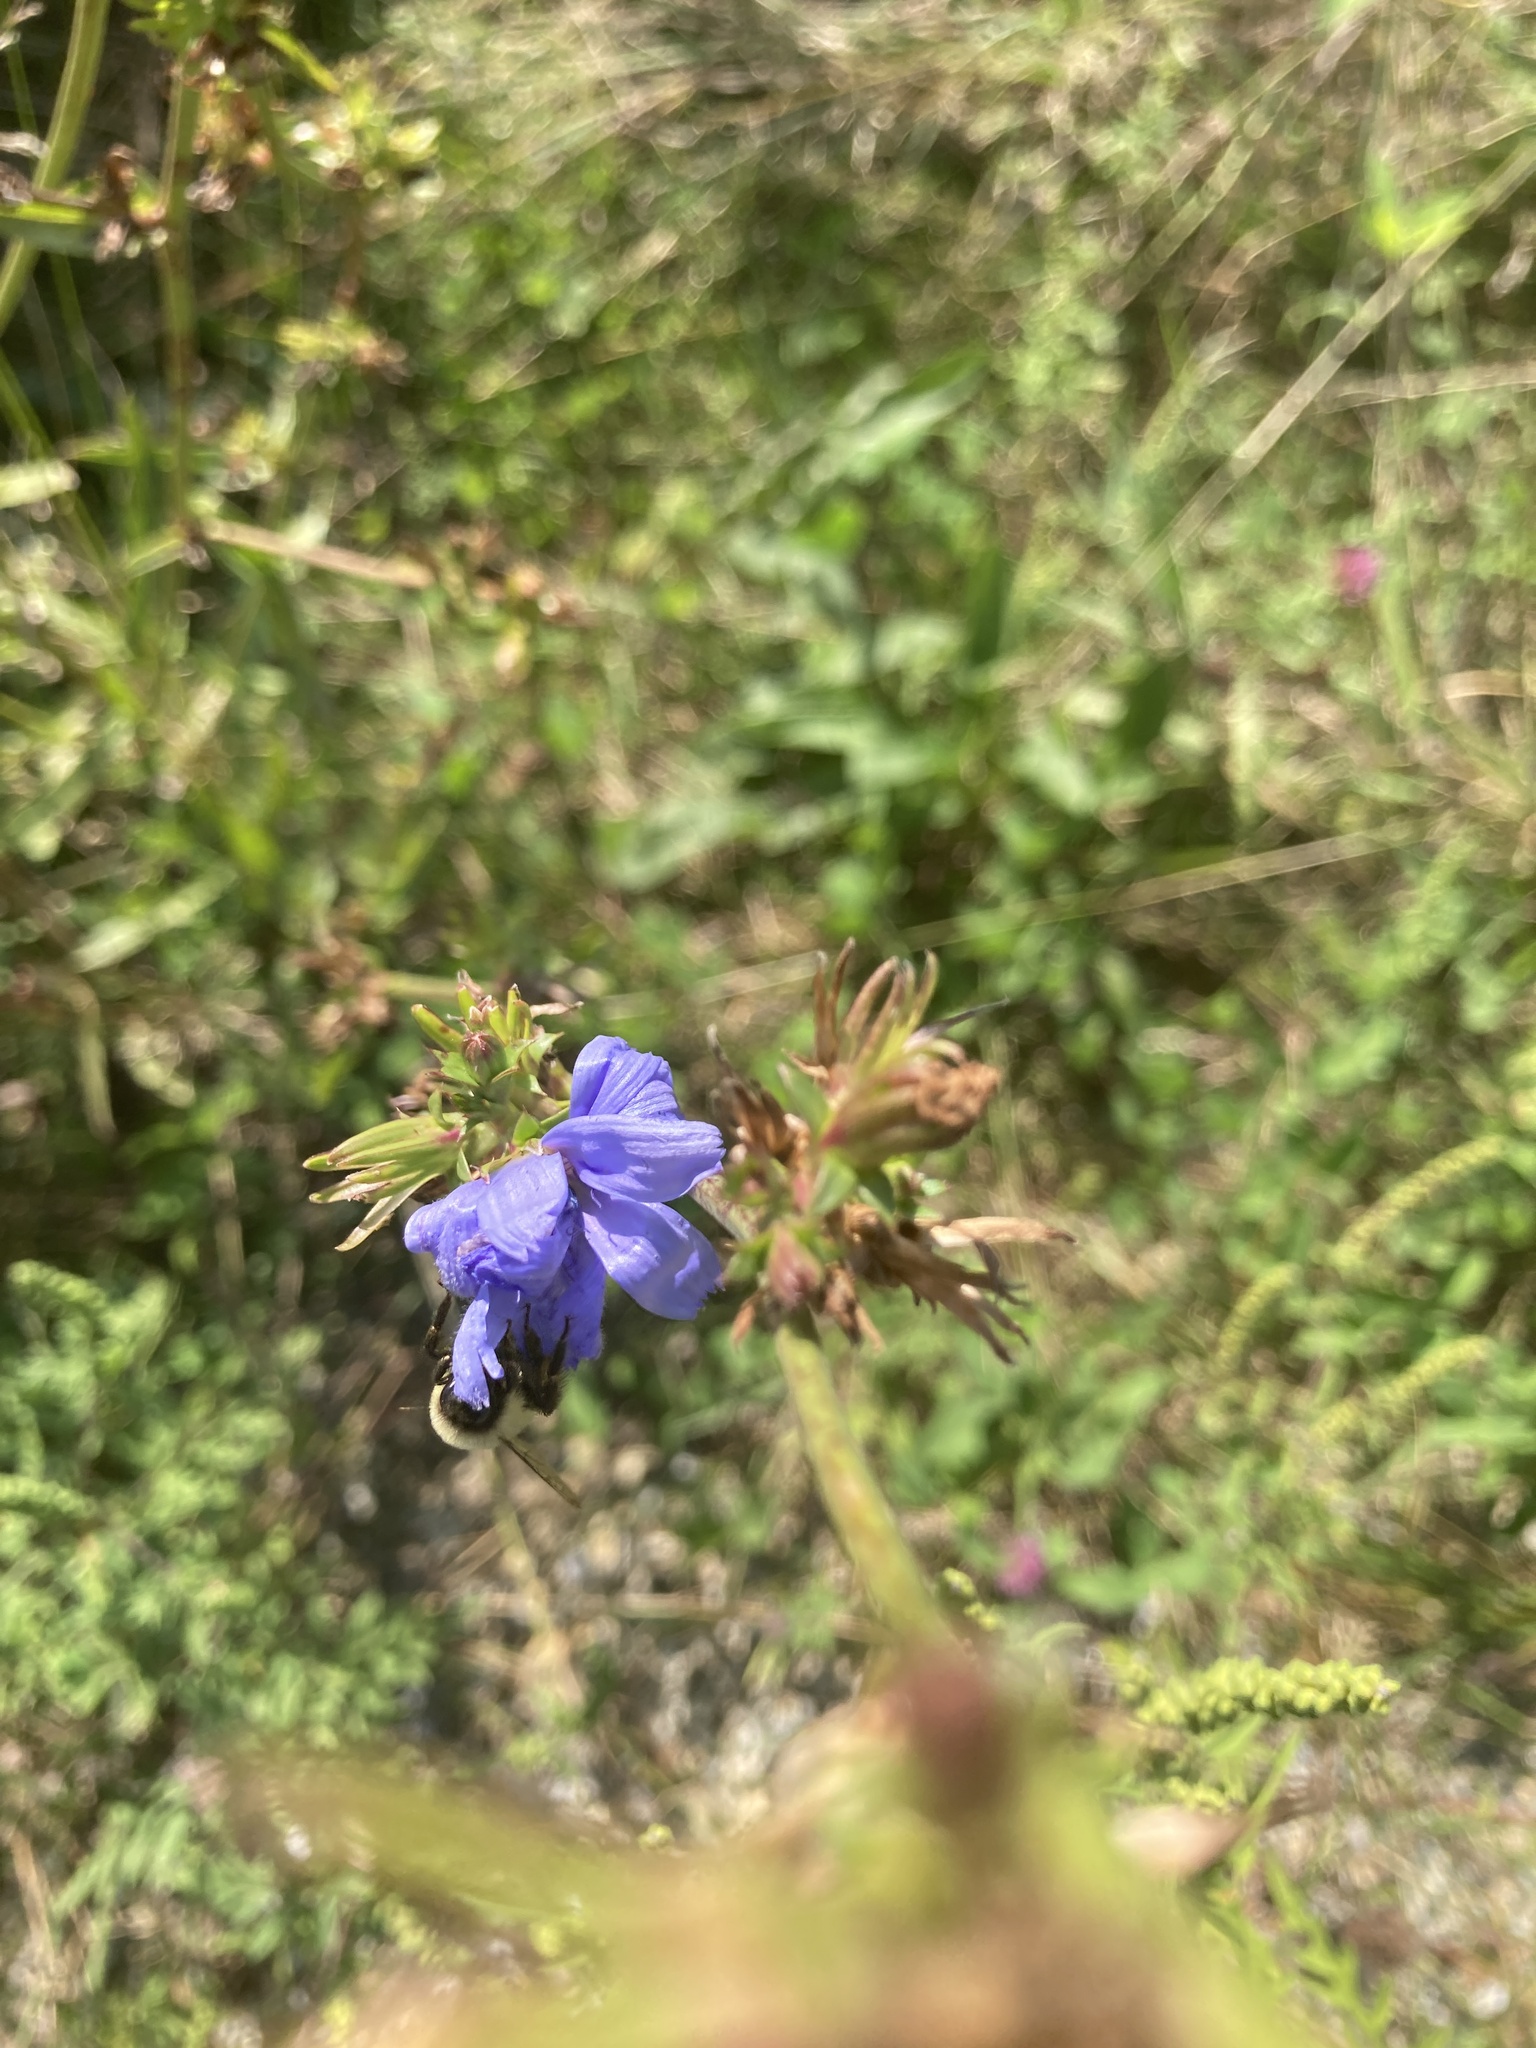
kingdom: Plantae
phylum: Tracheophyta
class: Magnoliopsida
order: Asterales
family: Asteraceae
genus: Cichorium
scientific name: Cichorium intybus
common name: Chicory
